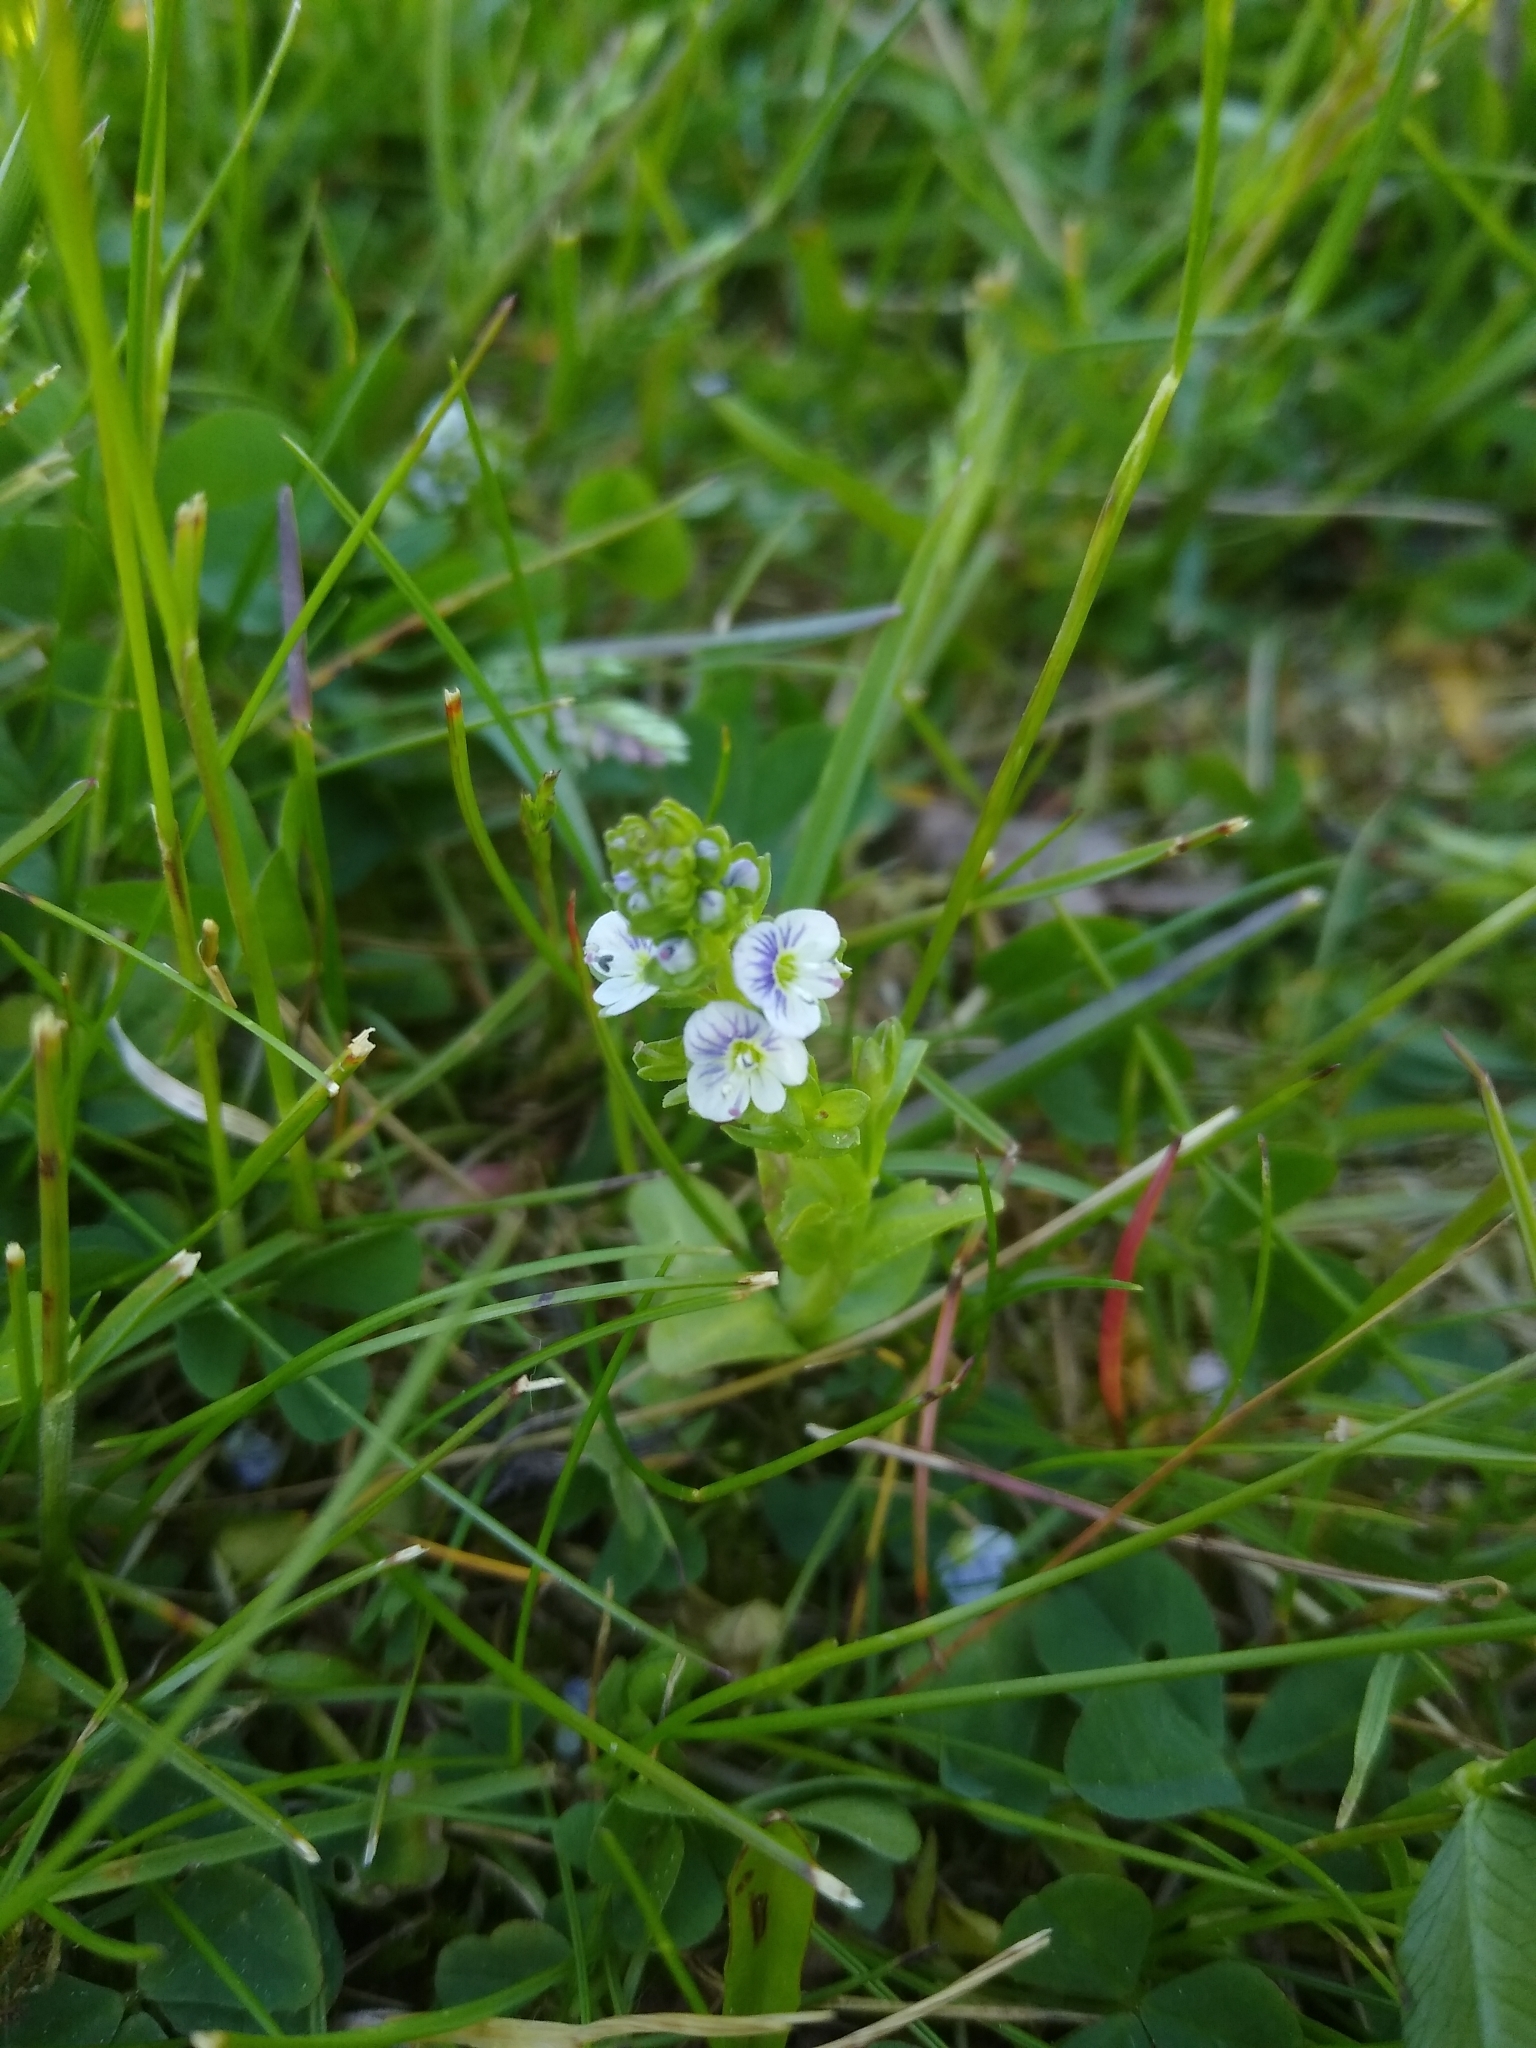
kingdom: Plantae
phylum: Tracheophyta
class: Magnoliopsida
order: Lamiales
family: Plantaginaceae
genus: Veronica
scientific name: Veronica serpyllifolia
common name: Thyme-leaved speedwell
